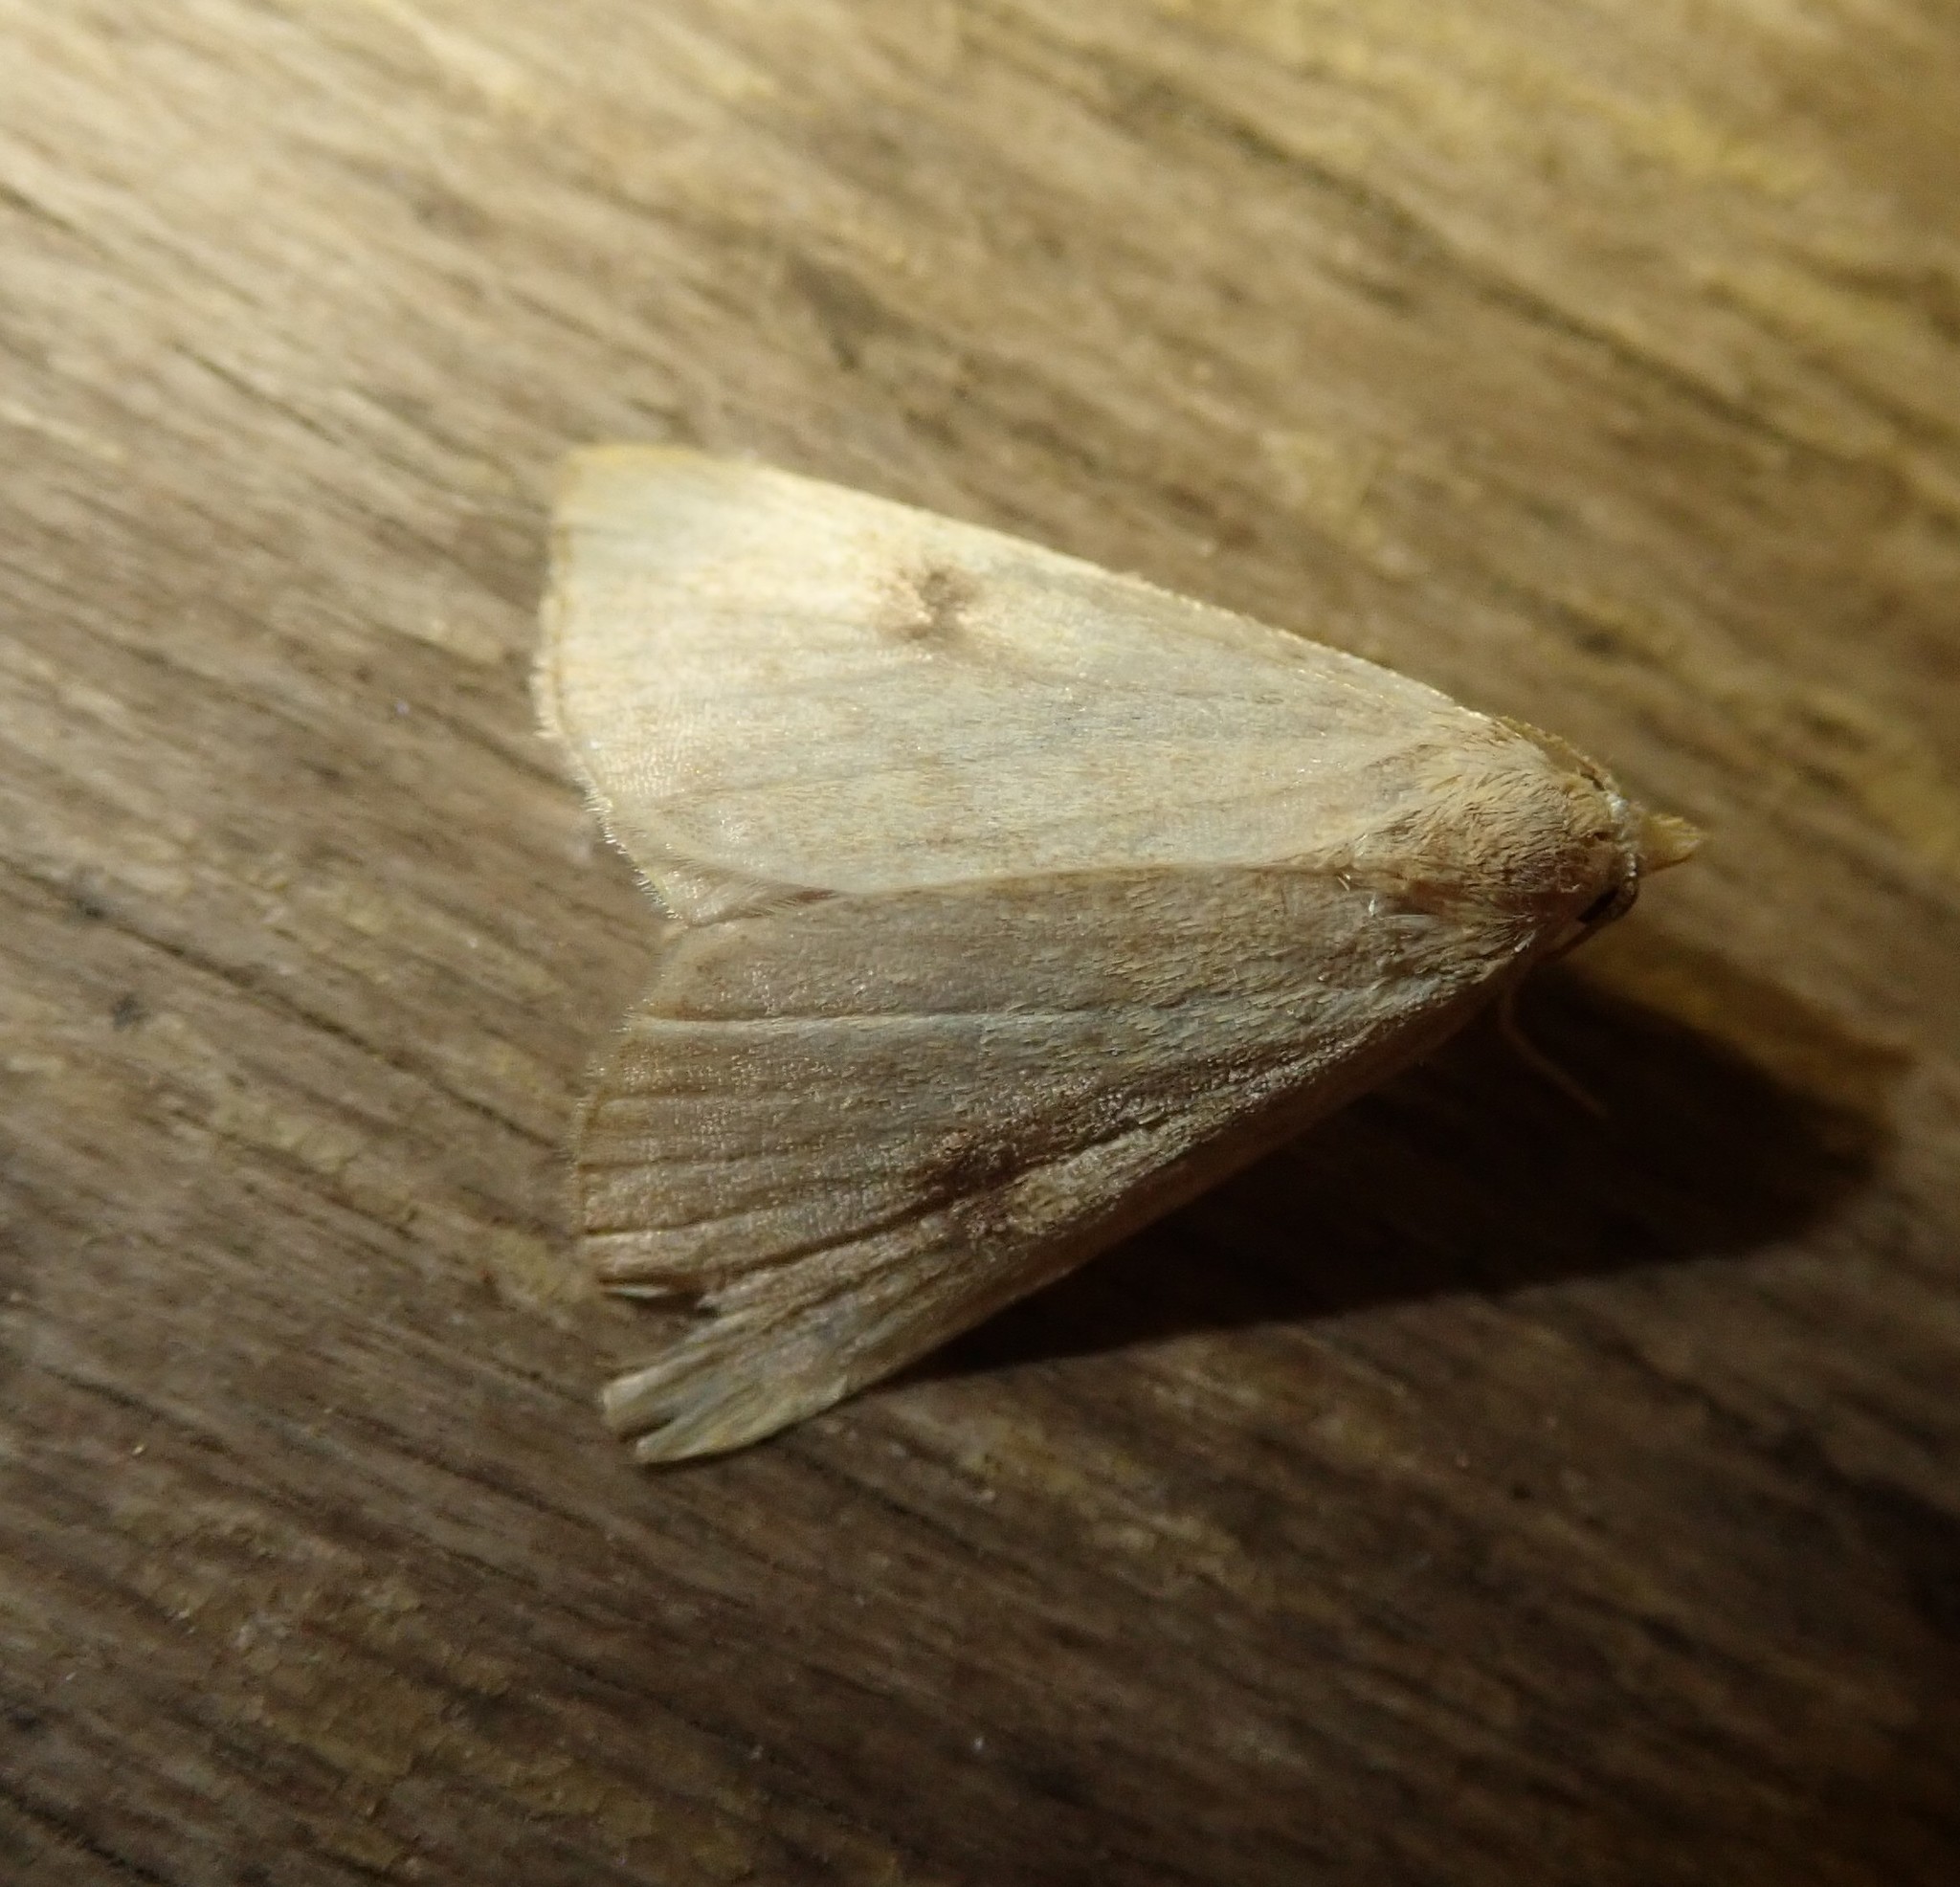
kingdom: Animalia
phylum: Arthropoda
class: Insecta
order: Lepidoptera
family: Erebidae
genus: Rivula
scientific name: Rivula sericealis
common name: Straw dot
